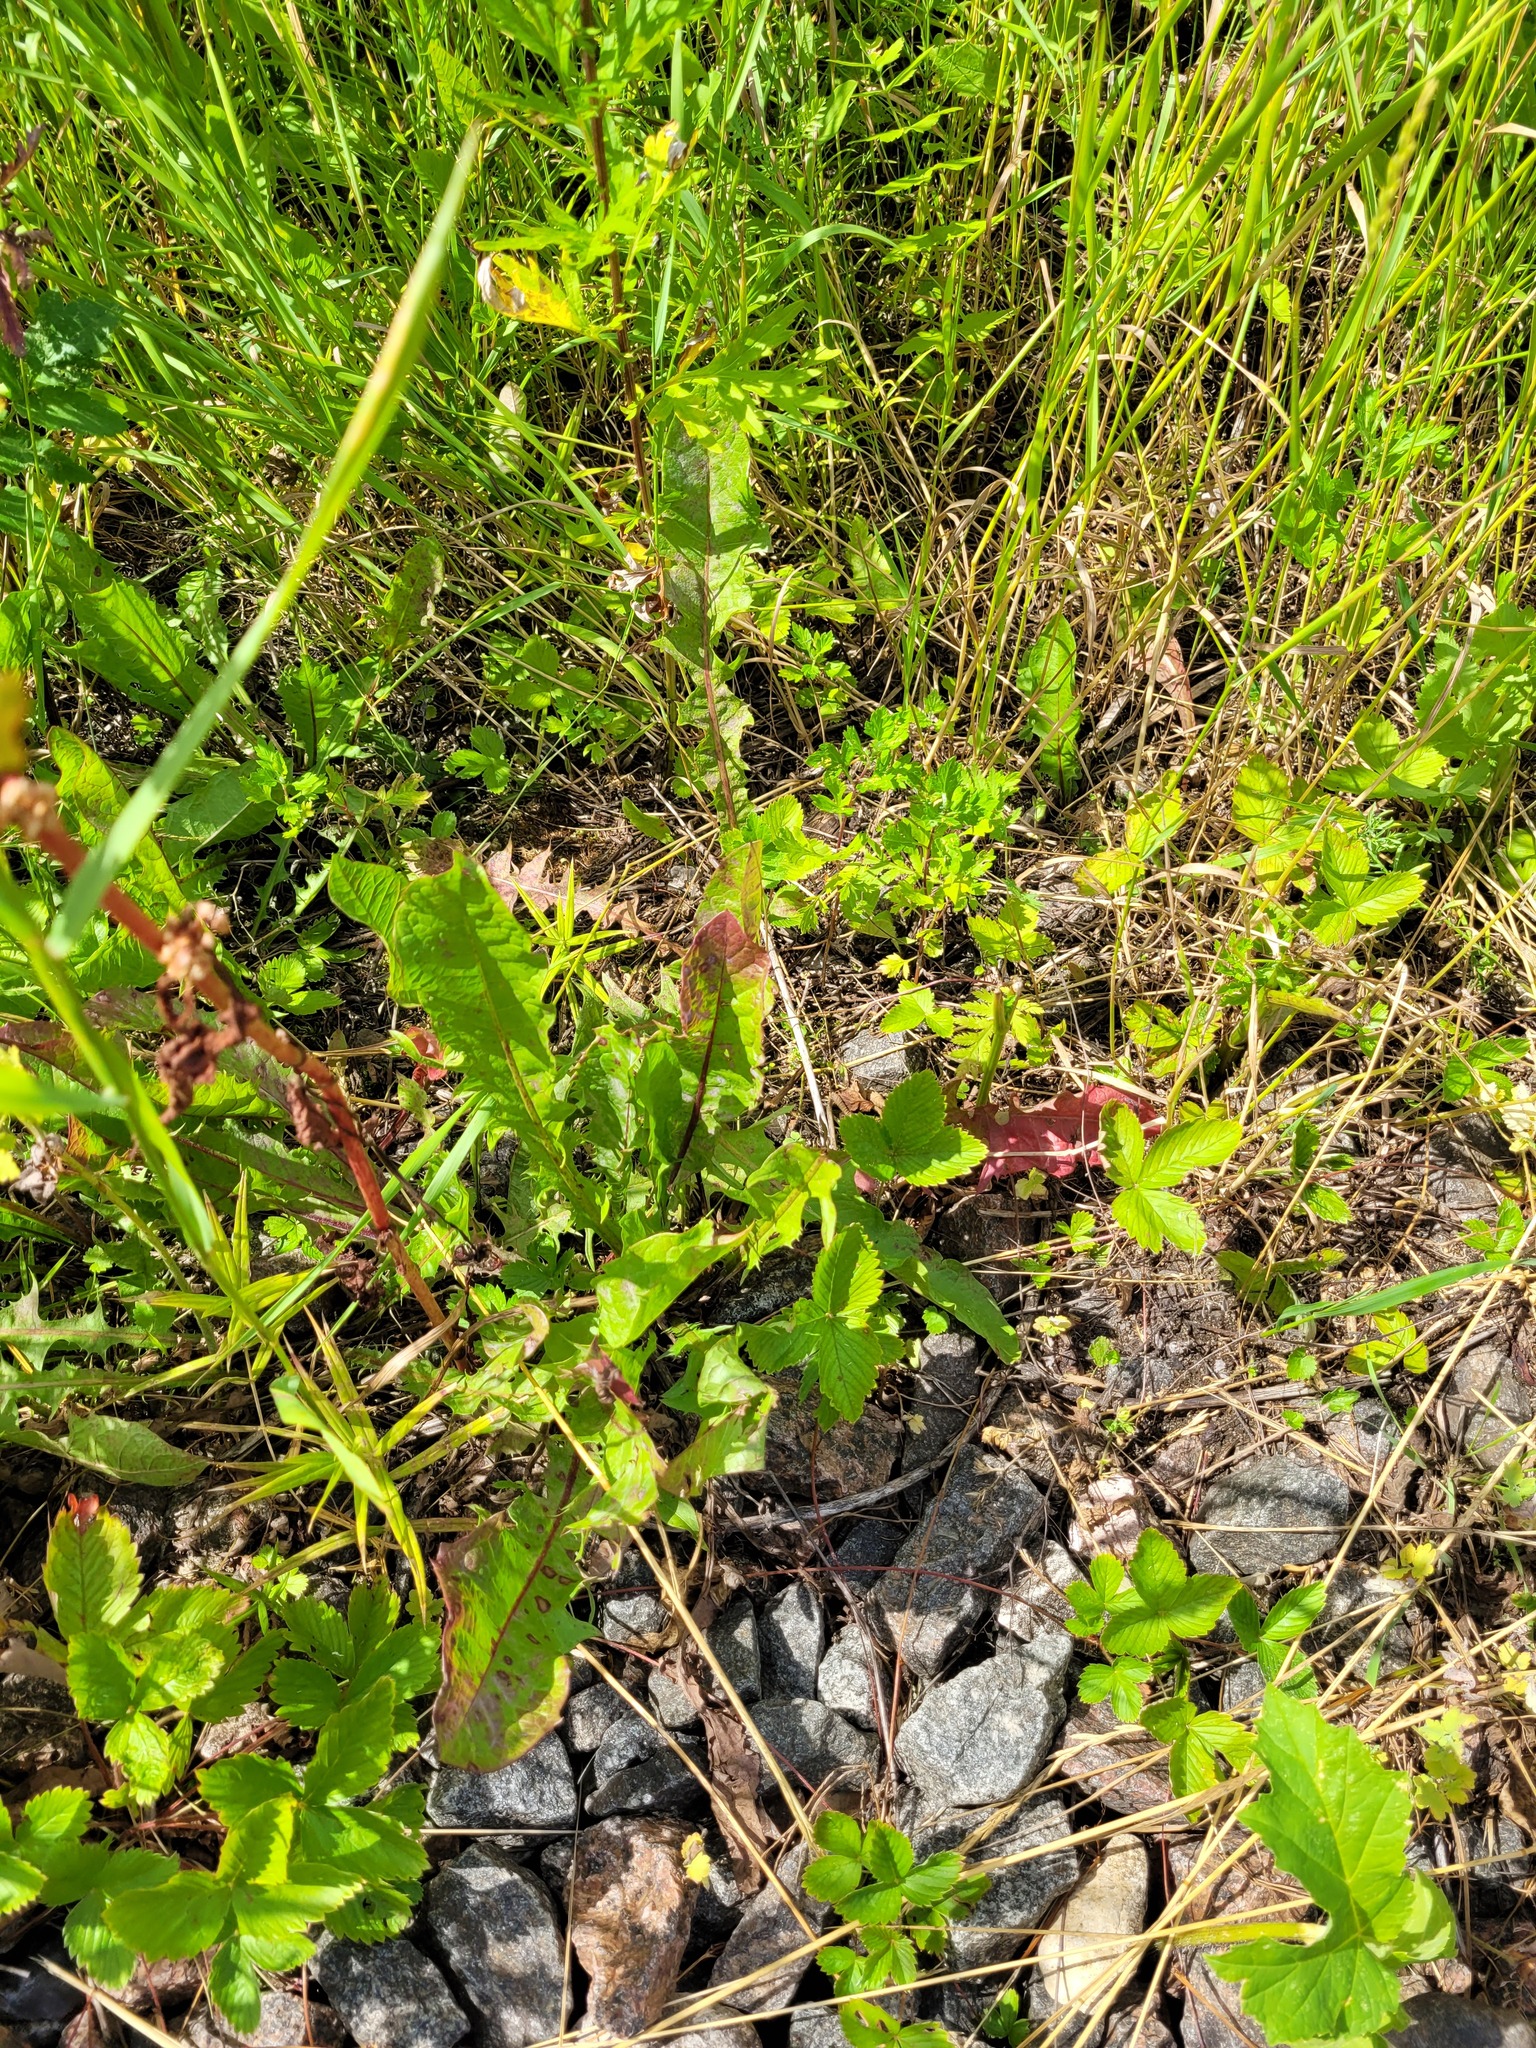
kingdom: Plantae
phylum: Tracheophyta
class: Magnoliopsida
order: Asterales
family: Asteraceae
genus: Taraxacum
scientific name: Taraxacum officinale
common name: Common dandelion
